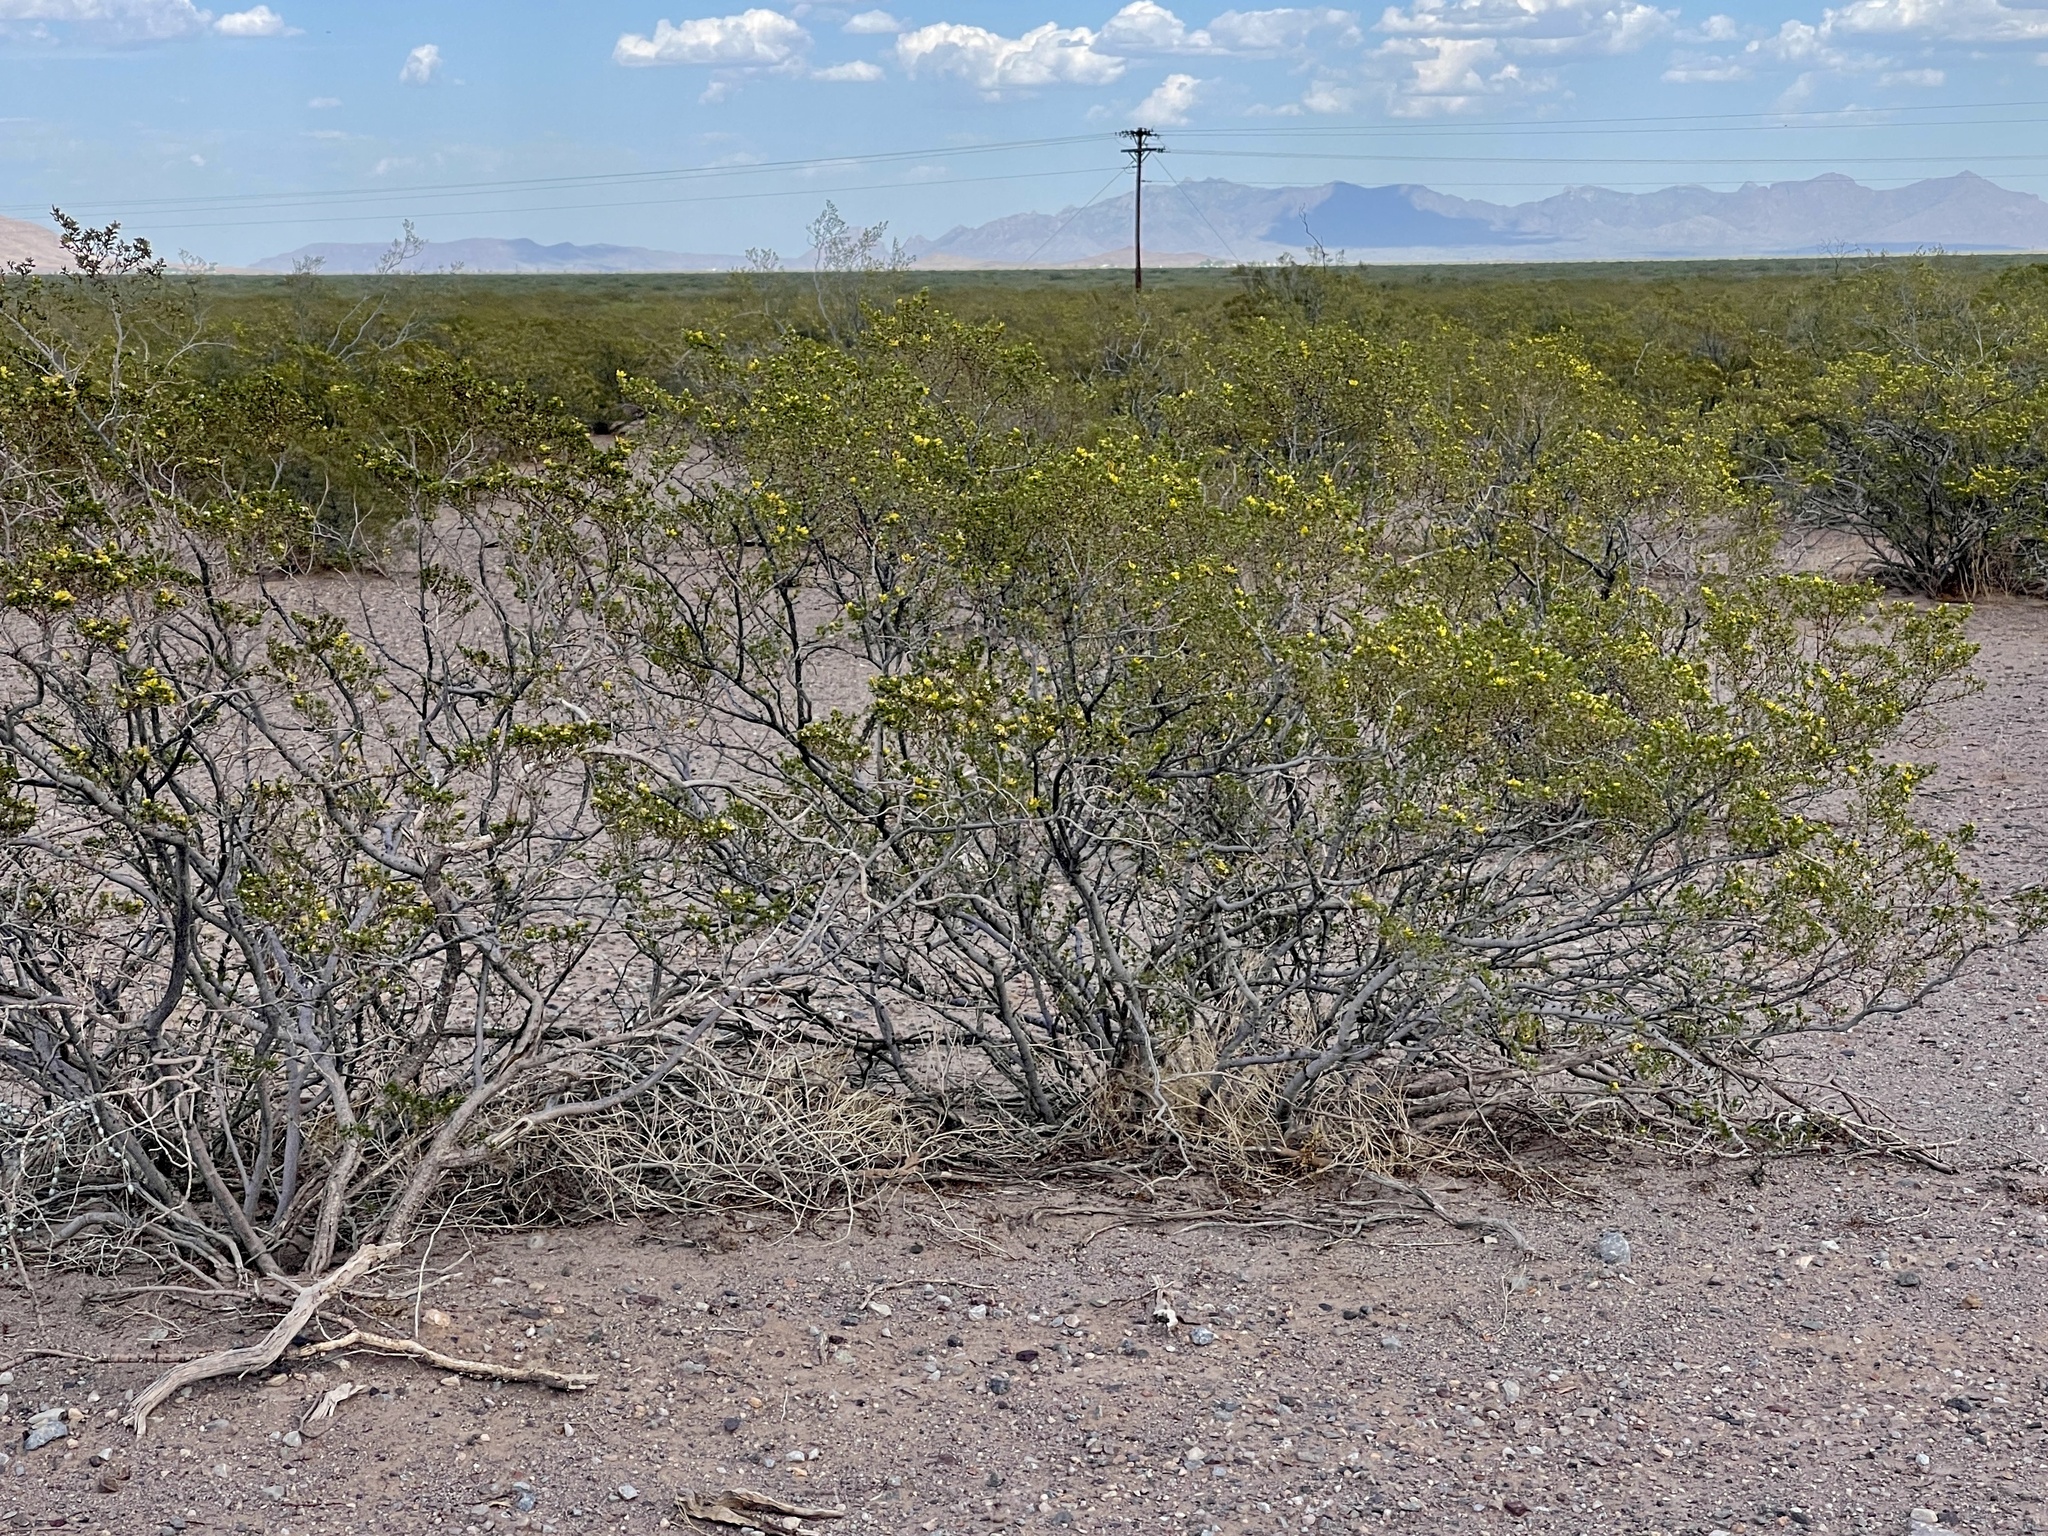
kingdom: Plantae
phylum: Tracheophyta
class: Magnoliopsida
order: Zygophyllales
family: Zygophyllaceae
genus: Larrea
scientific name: Larrea tridentata
